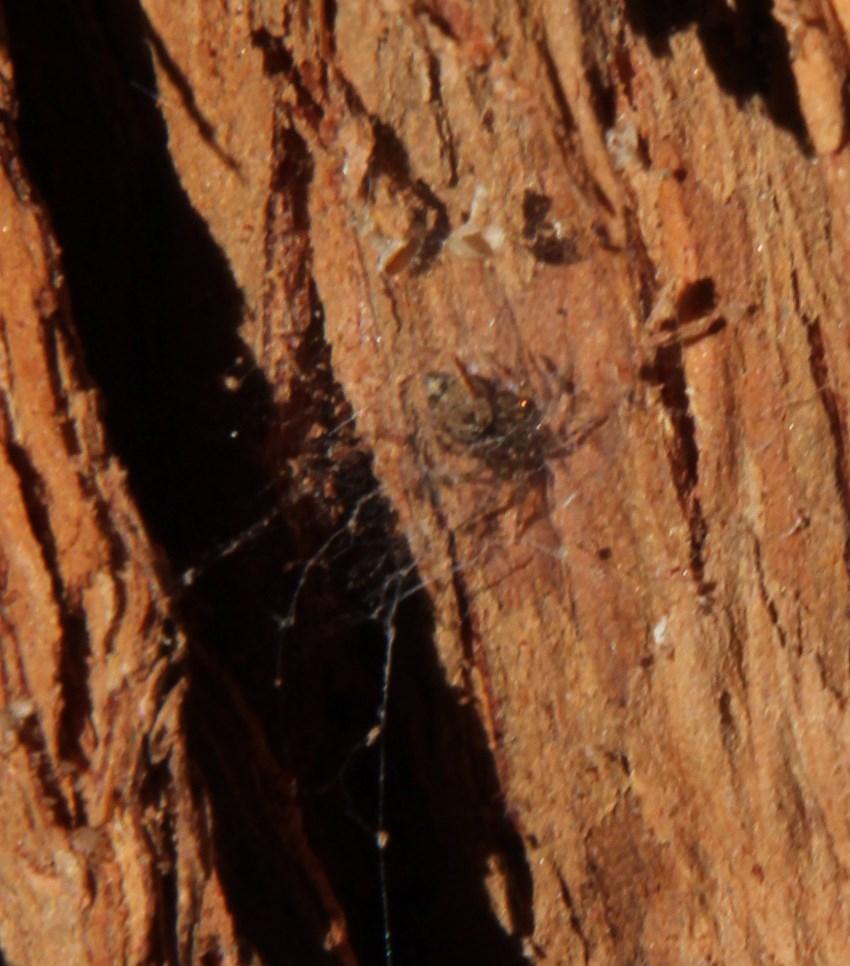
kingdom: Animalia
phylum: Arthropoda
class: Arachnida
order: Araneae
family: Oecobiidae
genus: Oecobius
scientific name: Oecobius navus
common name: Flatmesh weaver
